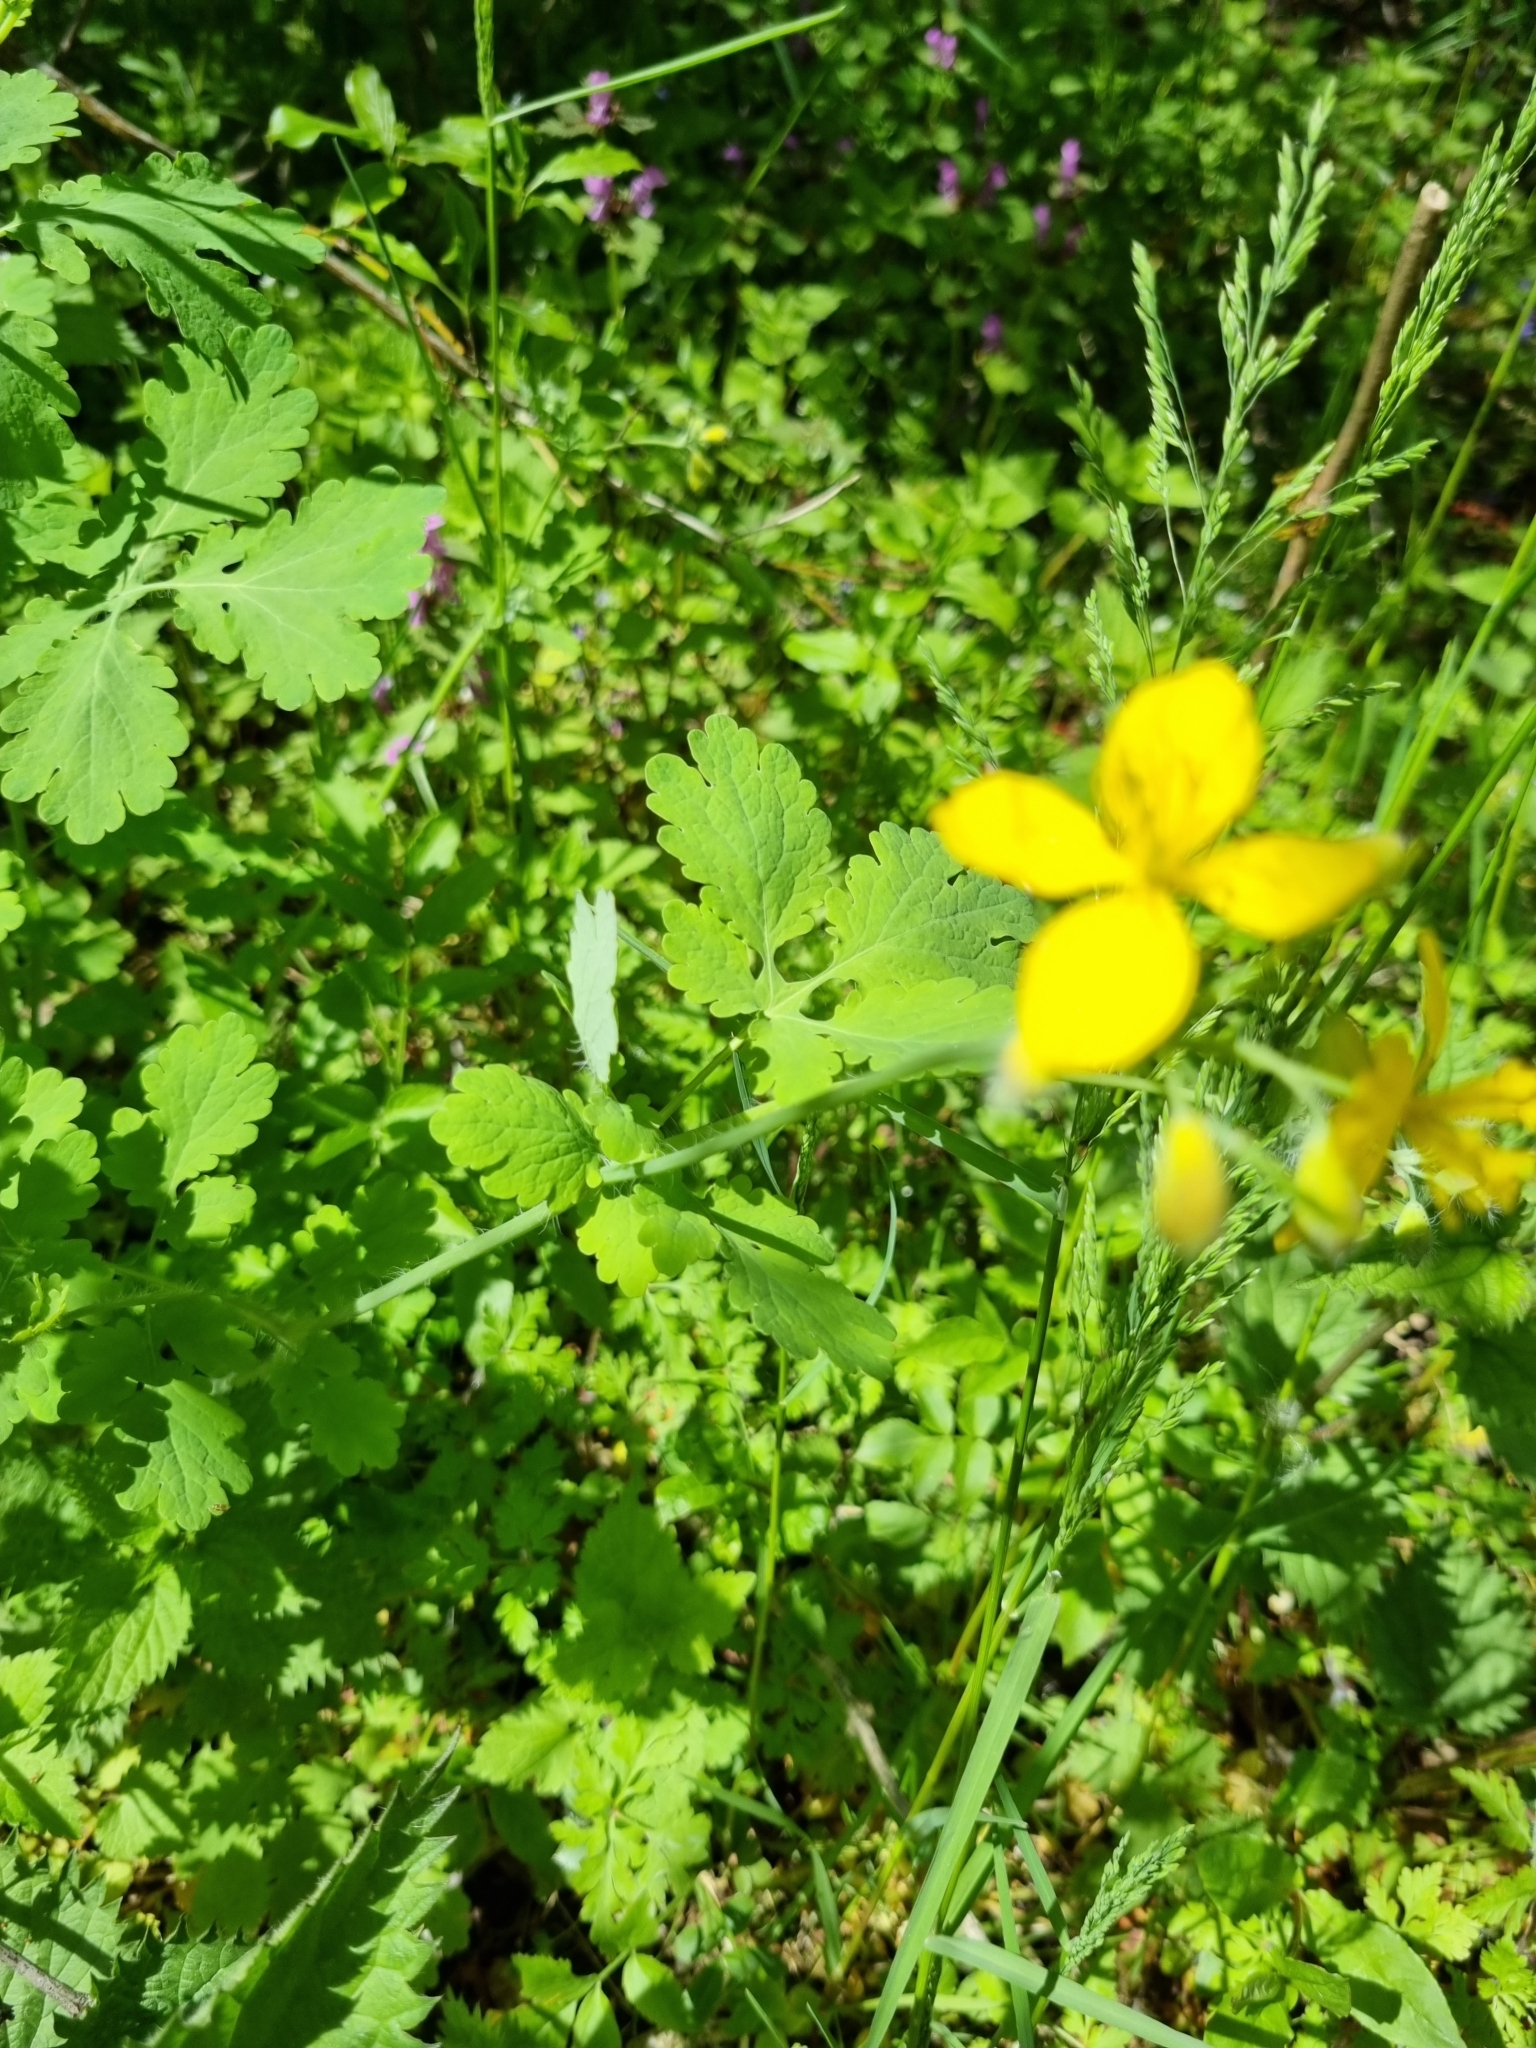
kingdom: Plantae
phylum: Tracheophyta
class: Magnoliopsida
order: Ranunculales
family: Papaveraceae
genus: Chelidonium
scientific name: Chelidonium majus
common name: Greater celandine
